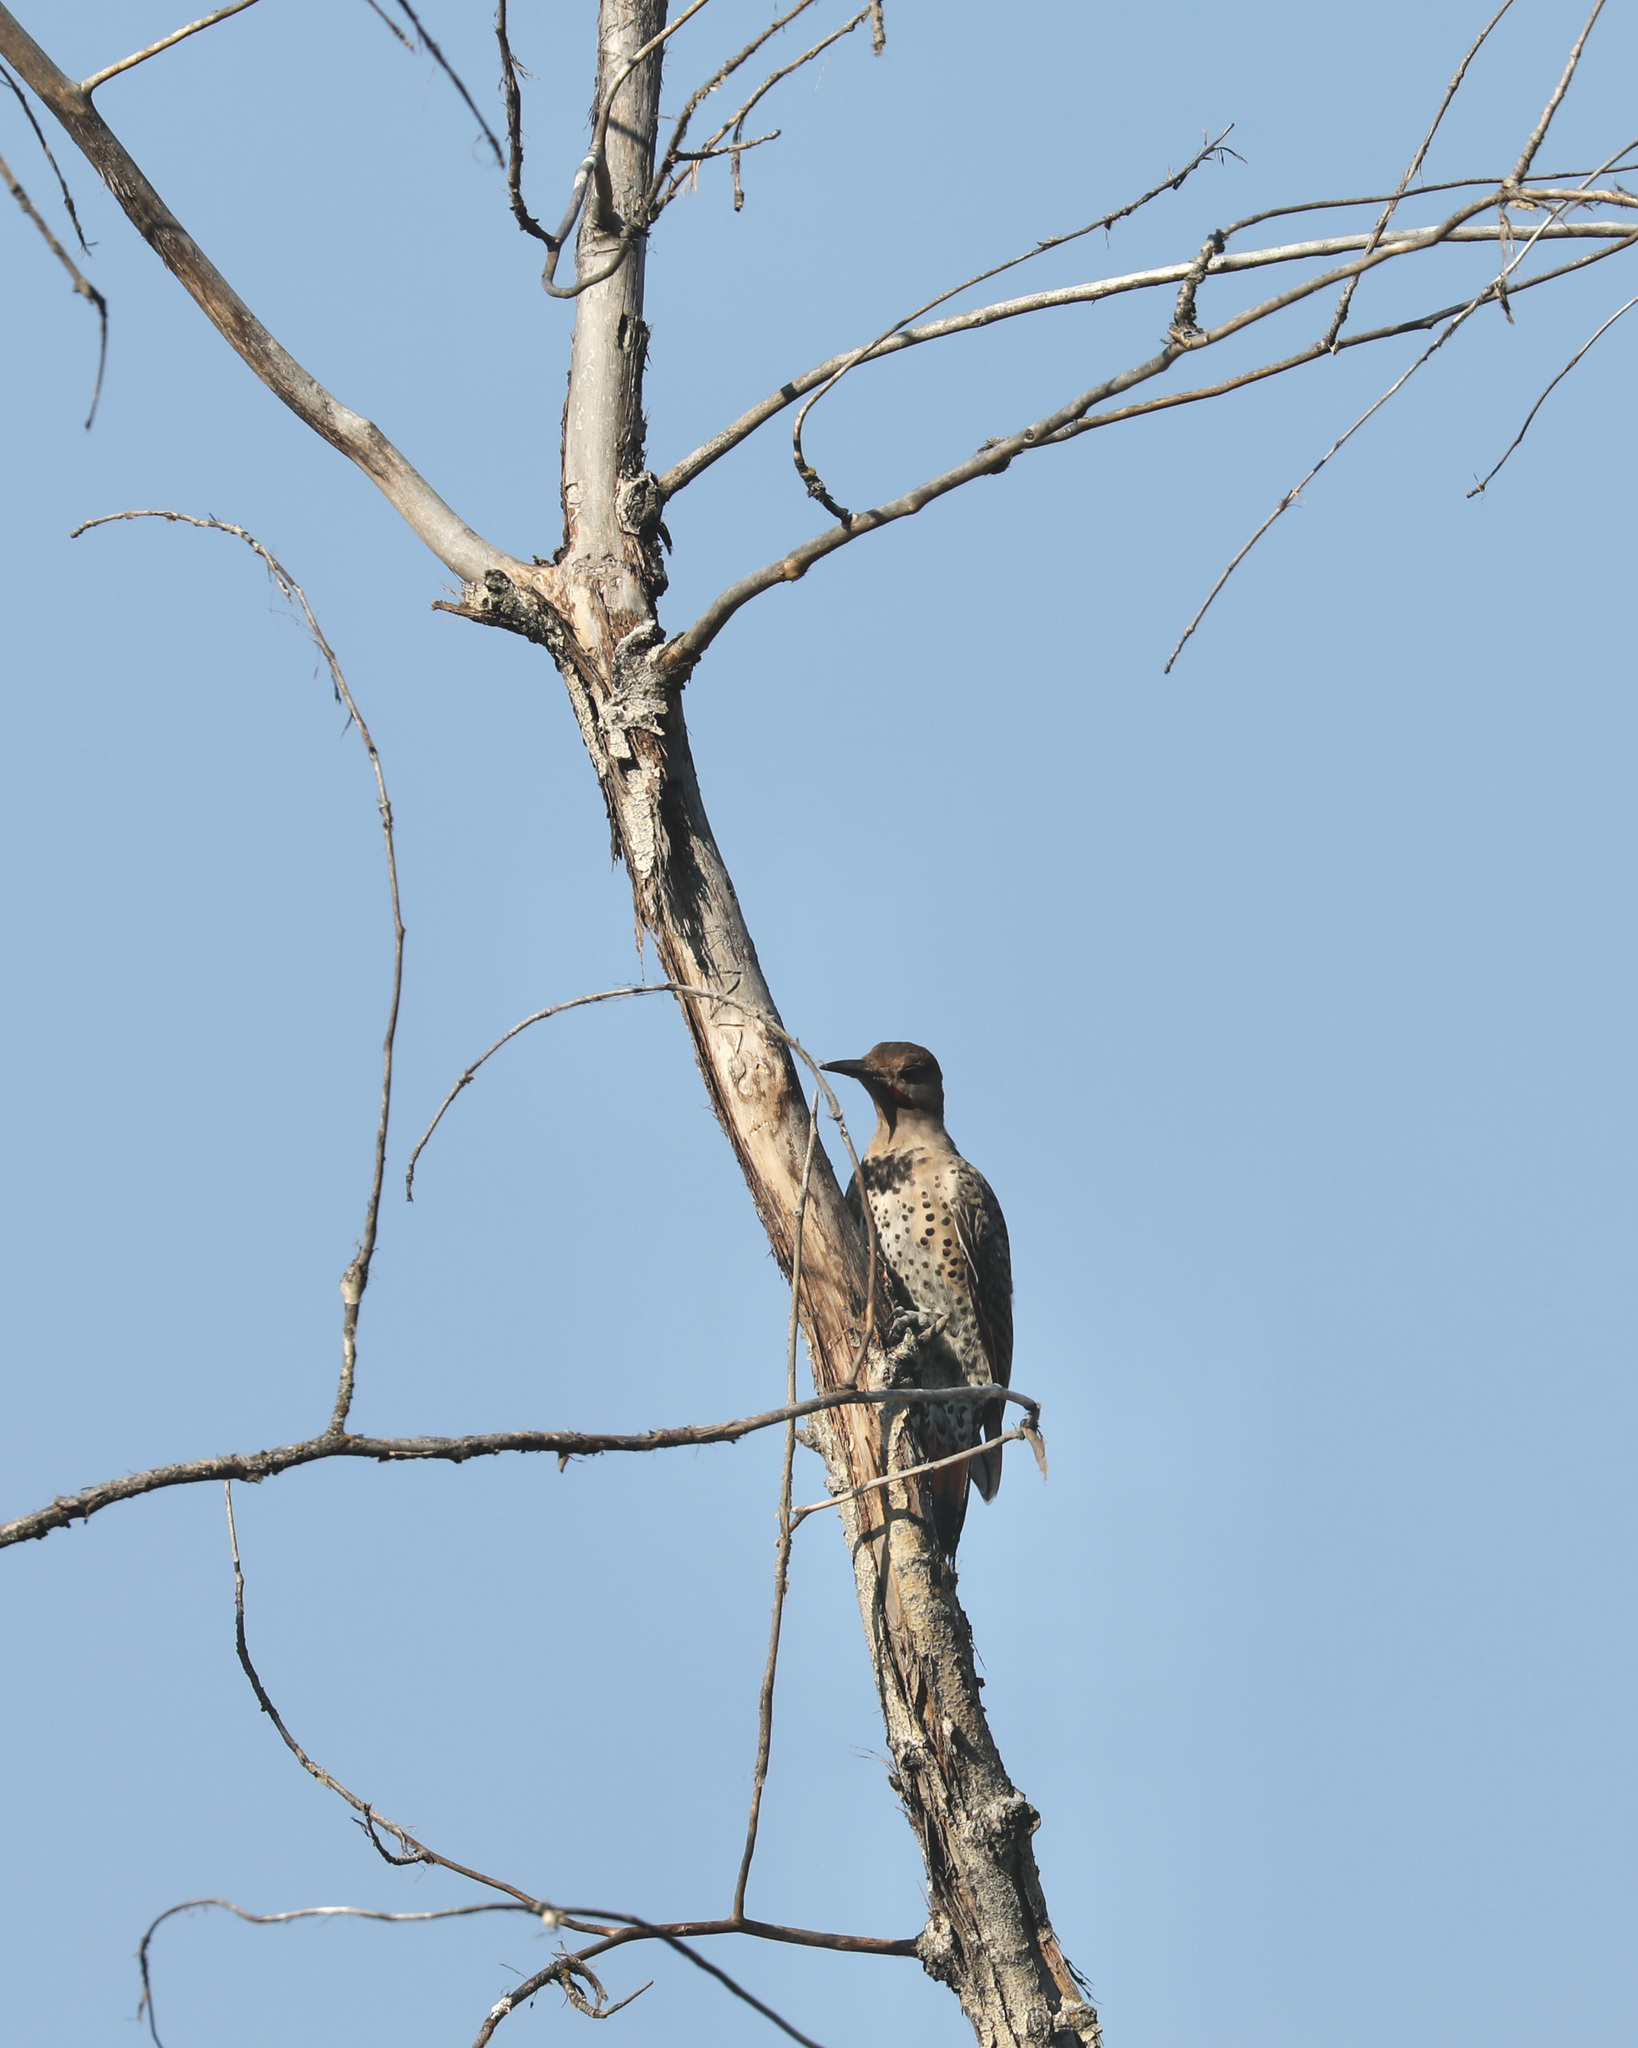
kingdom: Animalia
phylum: Chordata
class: Aves
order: Piciformes
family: Picidae
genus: Colaptes
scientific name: Colaptes auratus
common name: Northern flicker
